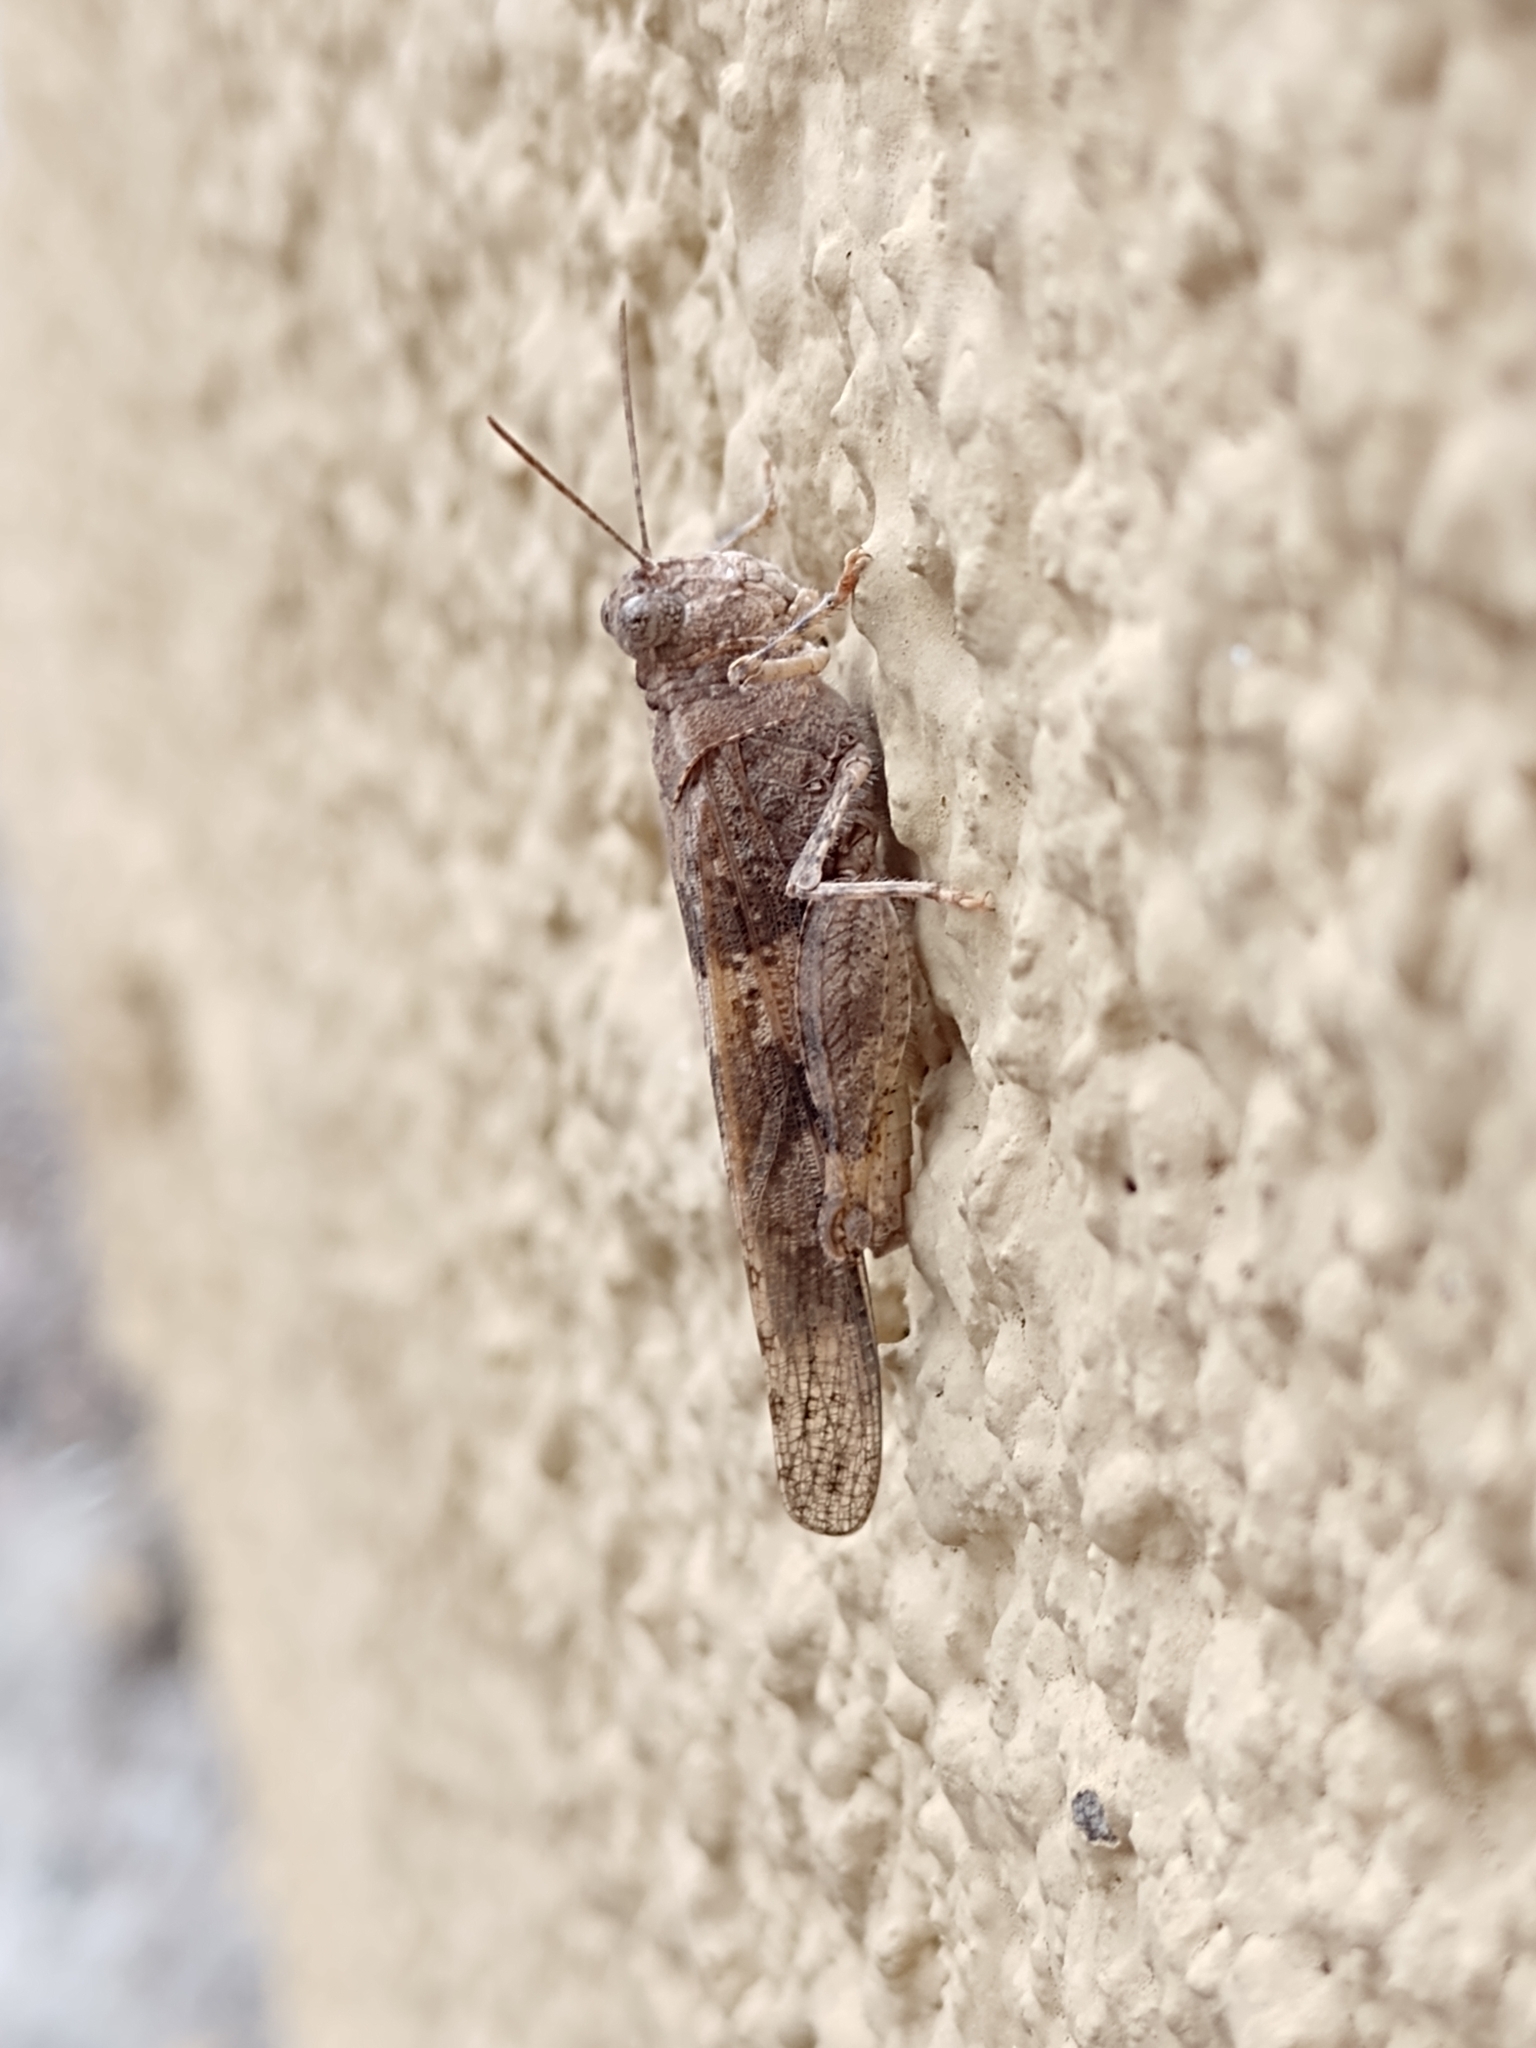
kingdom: Animalia
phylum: Arthropoda
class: Insecta
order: Orthoptera
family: Acrididae
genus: Trimerotropis
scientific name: Trimerotropis pallidipennis
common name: Pallid-winged grasshopper
